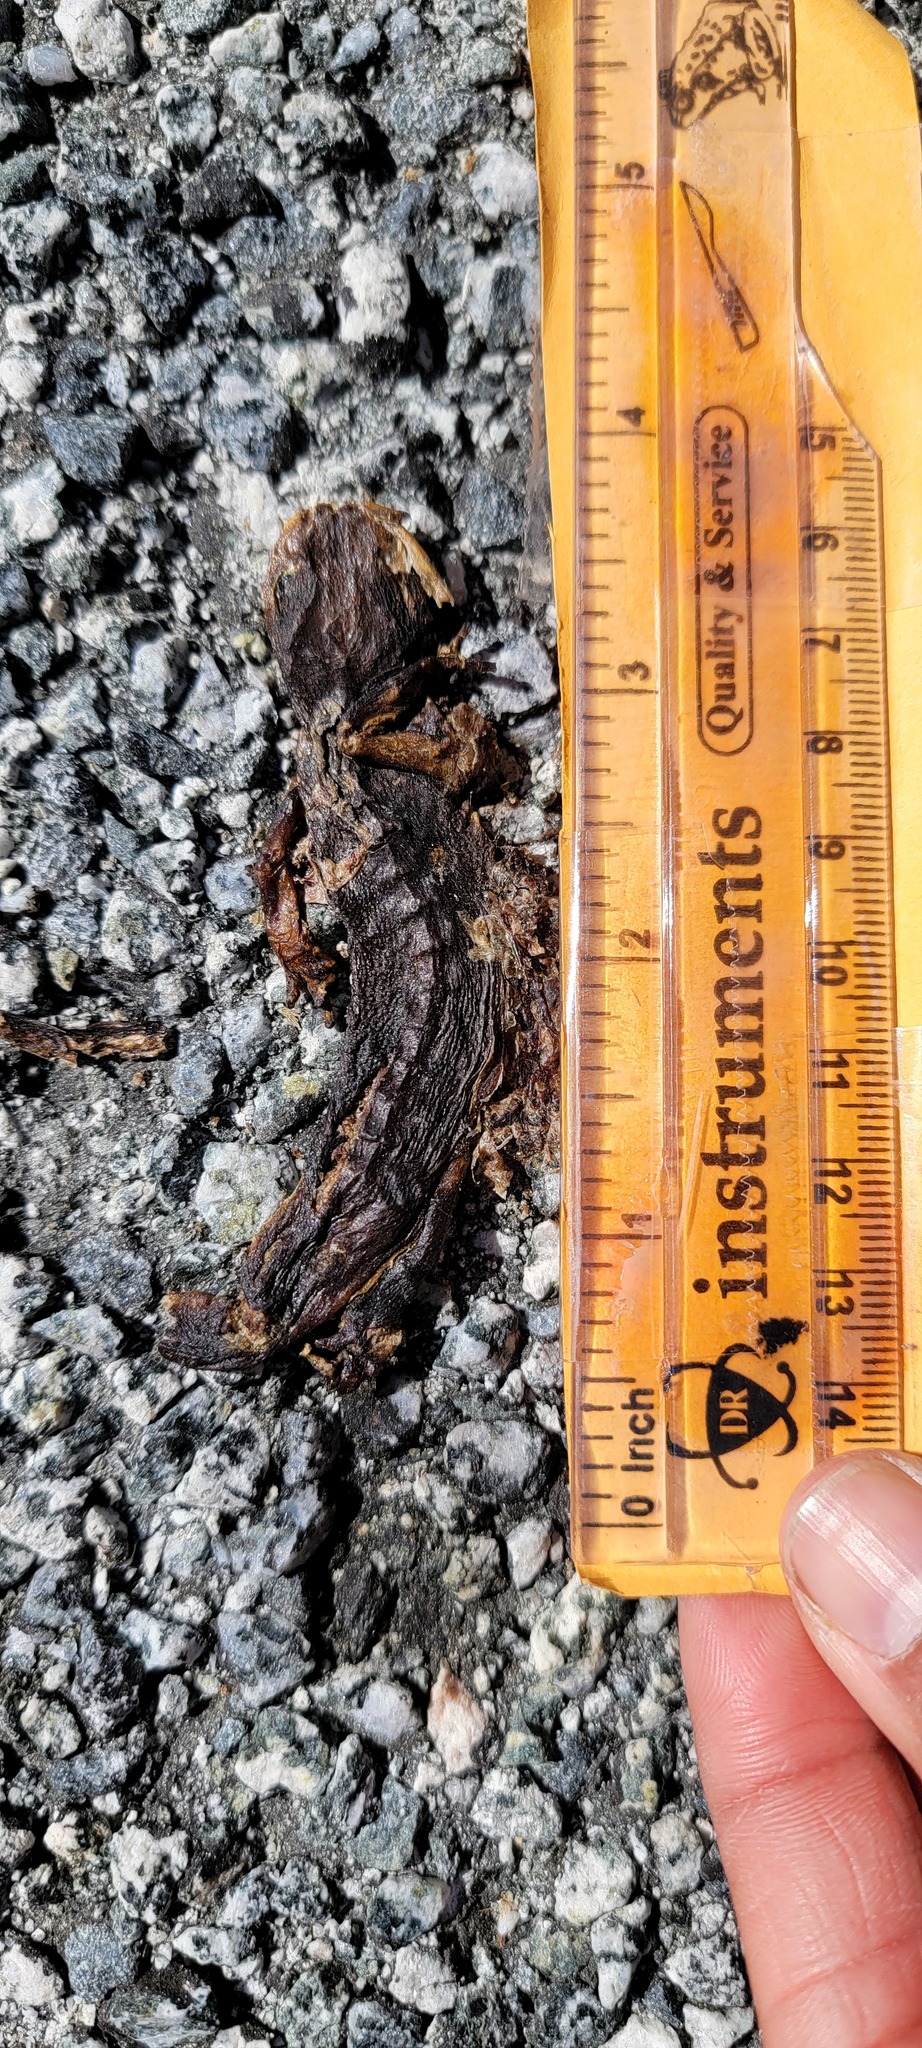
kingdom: Animalia
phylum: Chordata
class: Amphibia
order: Caudata
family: Salamandridae
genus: Taricha
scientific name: Taricha
